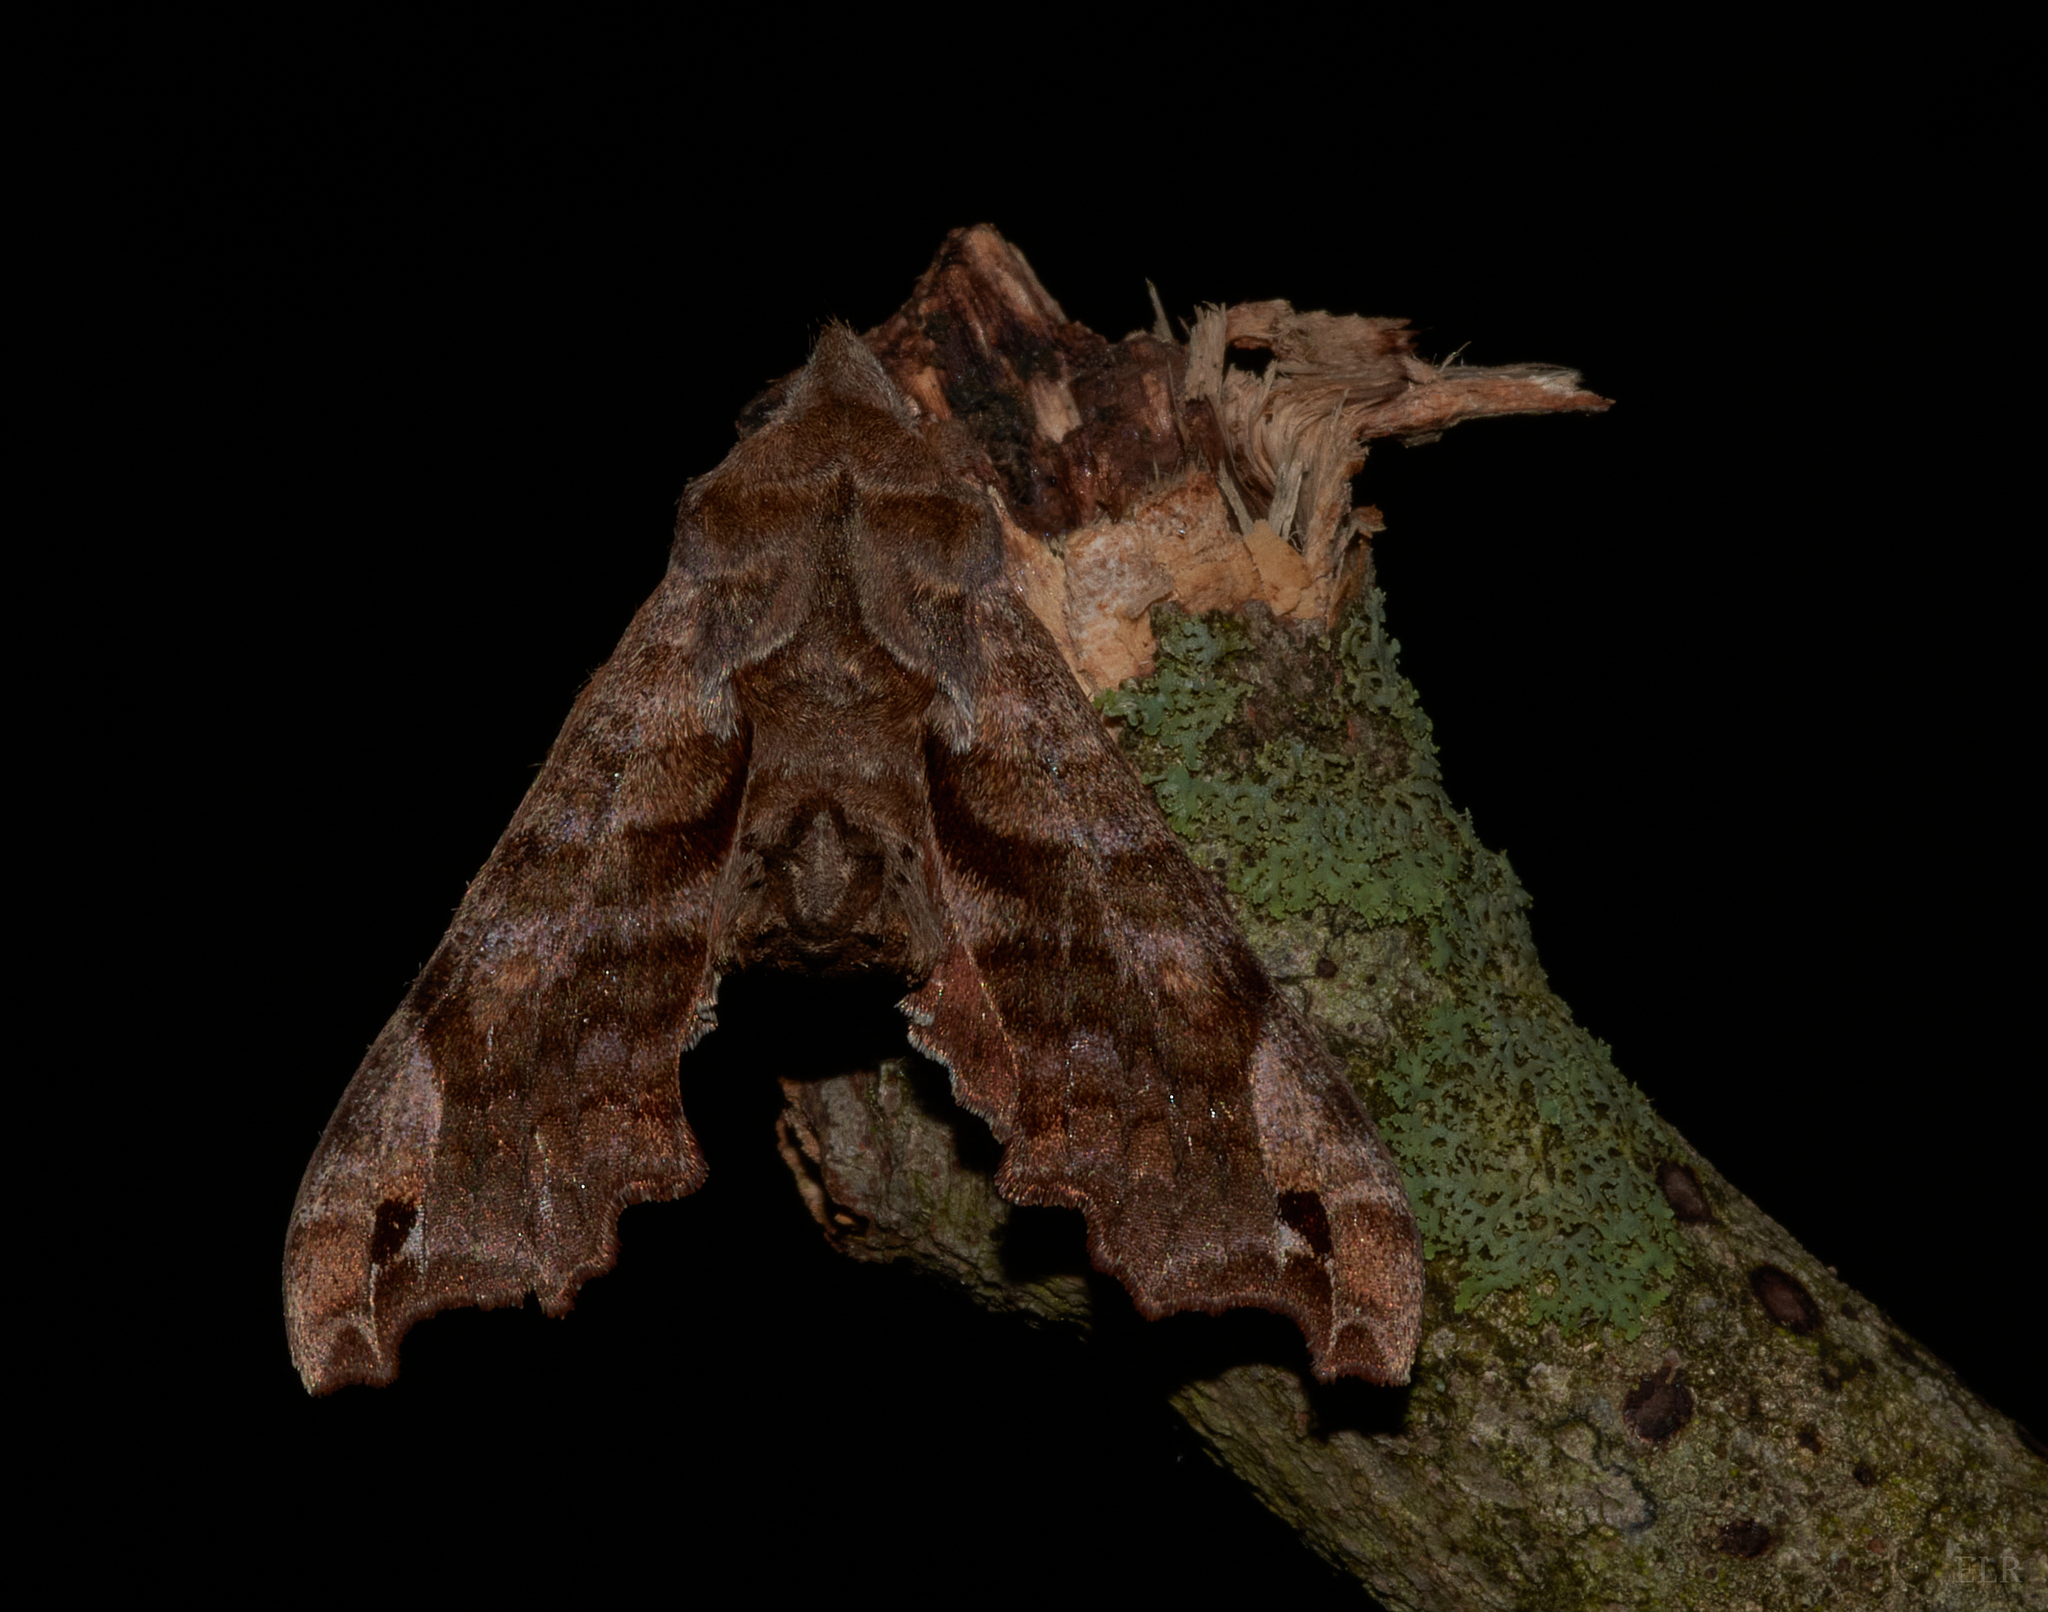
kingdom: Animalia
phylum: Arthropoda
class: Insecta
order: Lepidoptera
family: Sphingidae
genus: Deidamia
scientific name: Deidamia inscriptum
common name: Lettered sphinx
